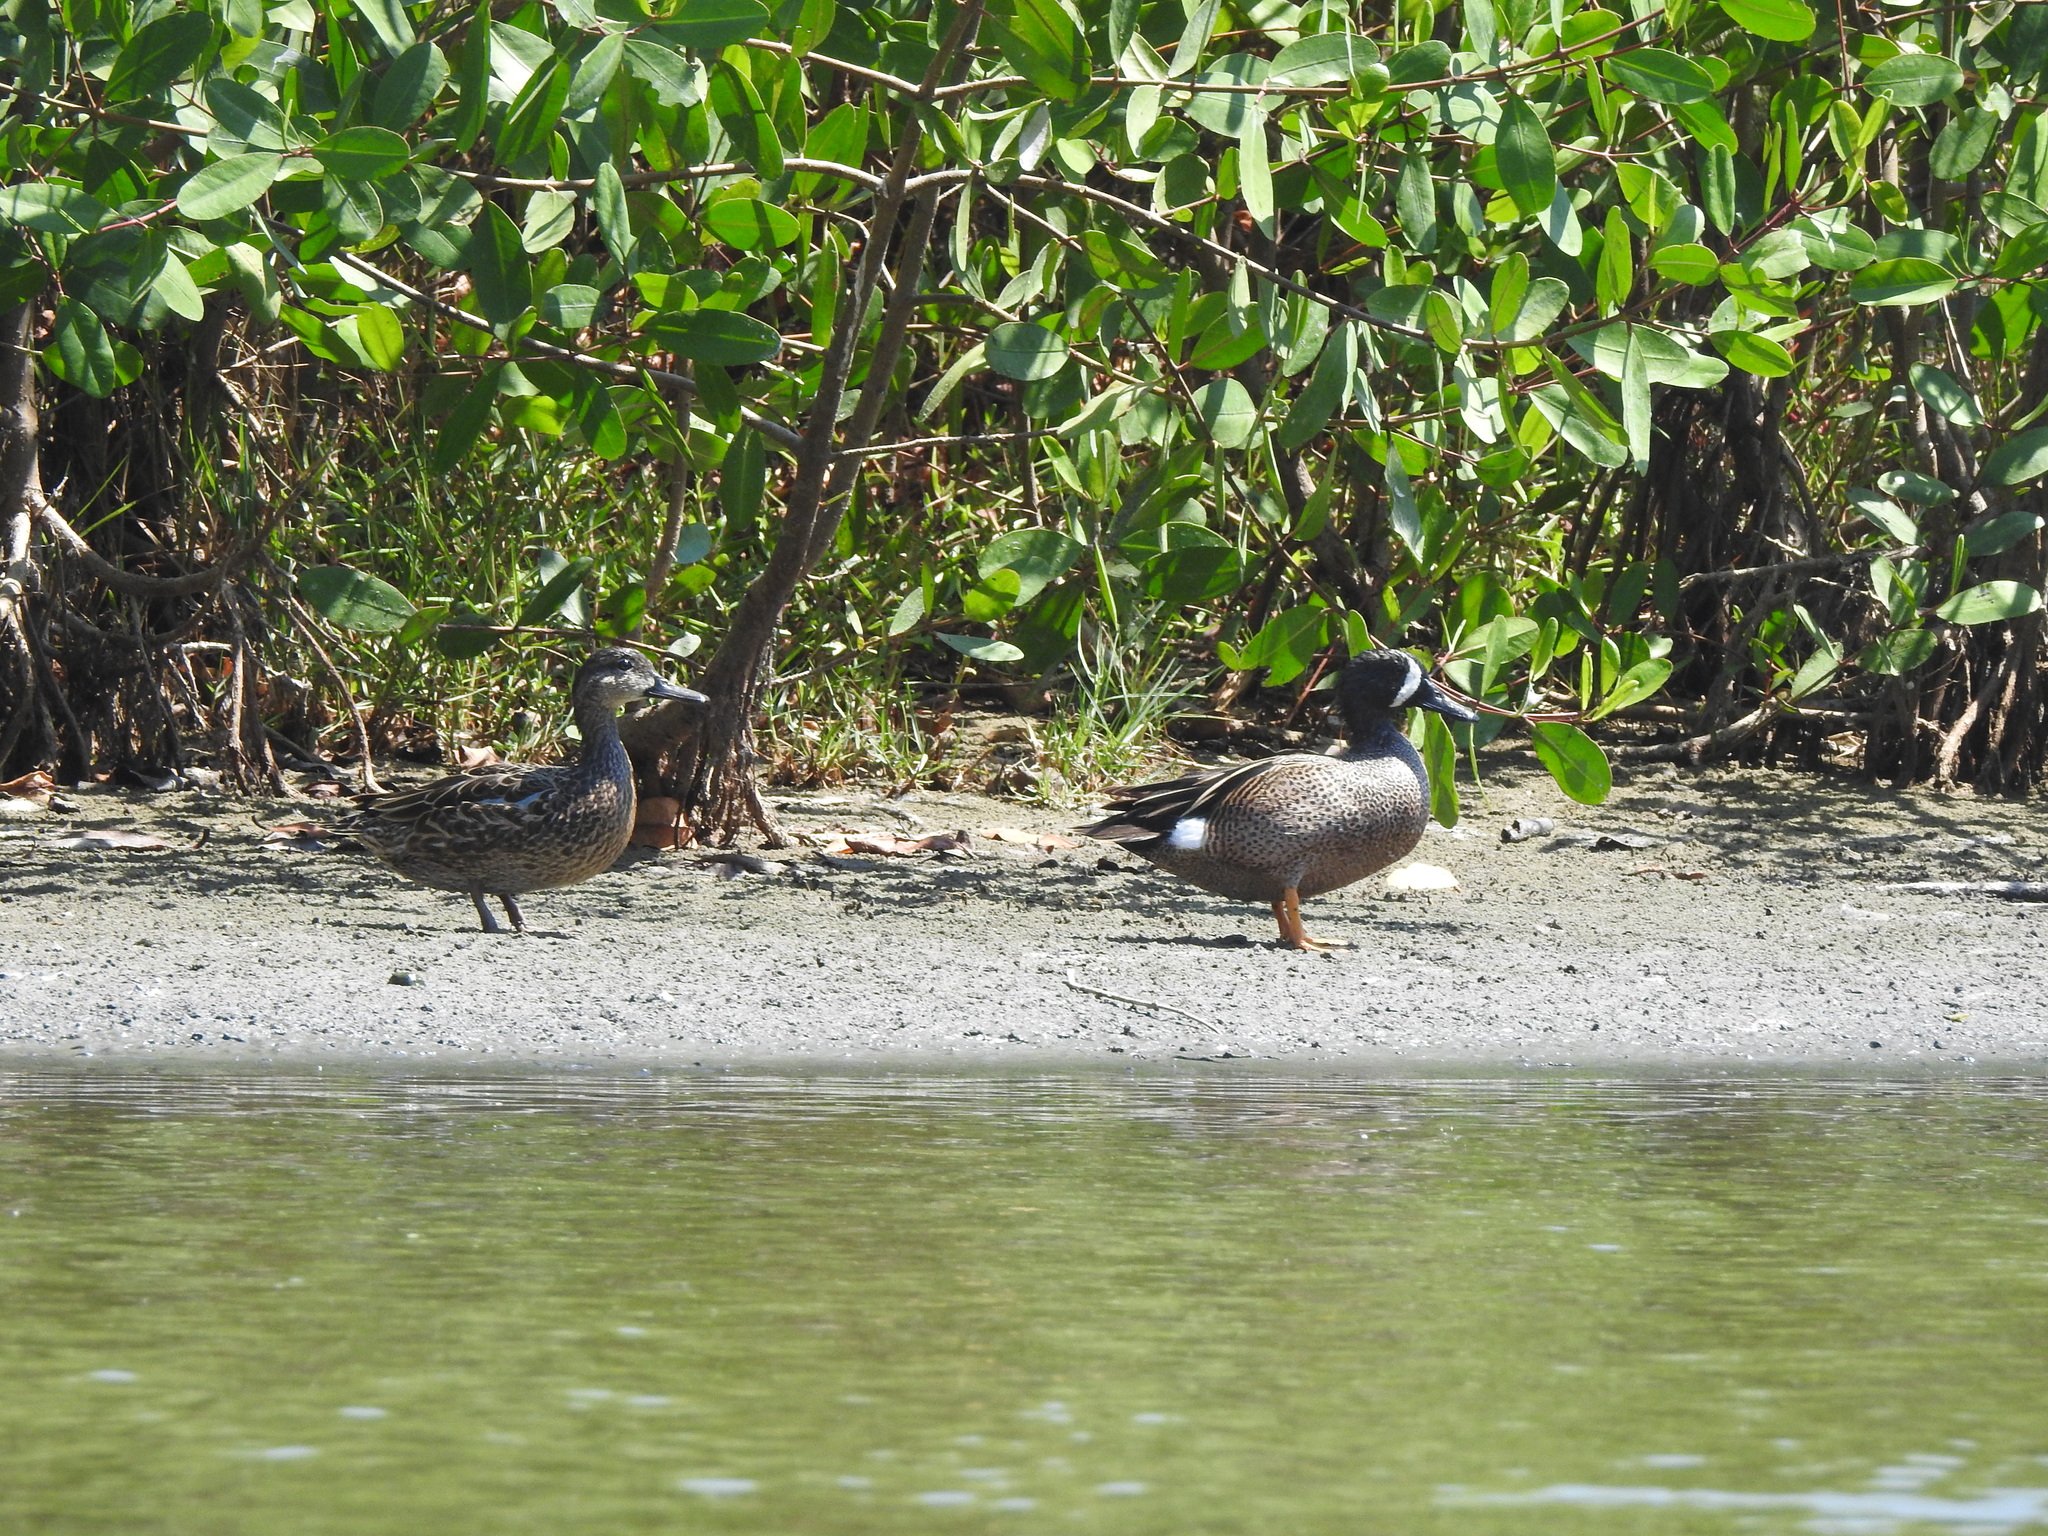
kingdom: Animalia
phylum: Chordata
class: Aves
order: Anseriformes
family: Anatidae
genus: Spatula
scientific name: Spatula discors
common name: Blue-winged teal
